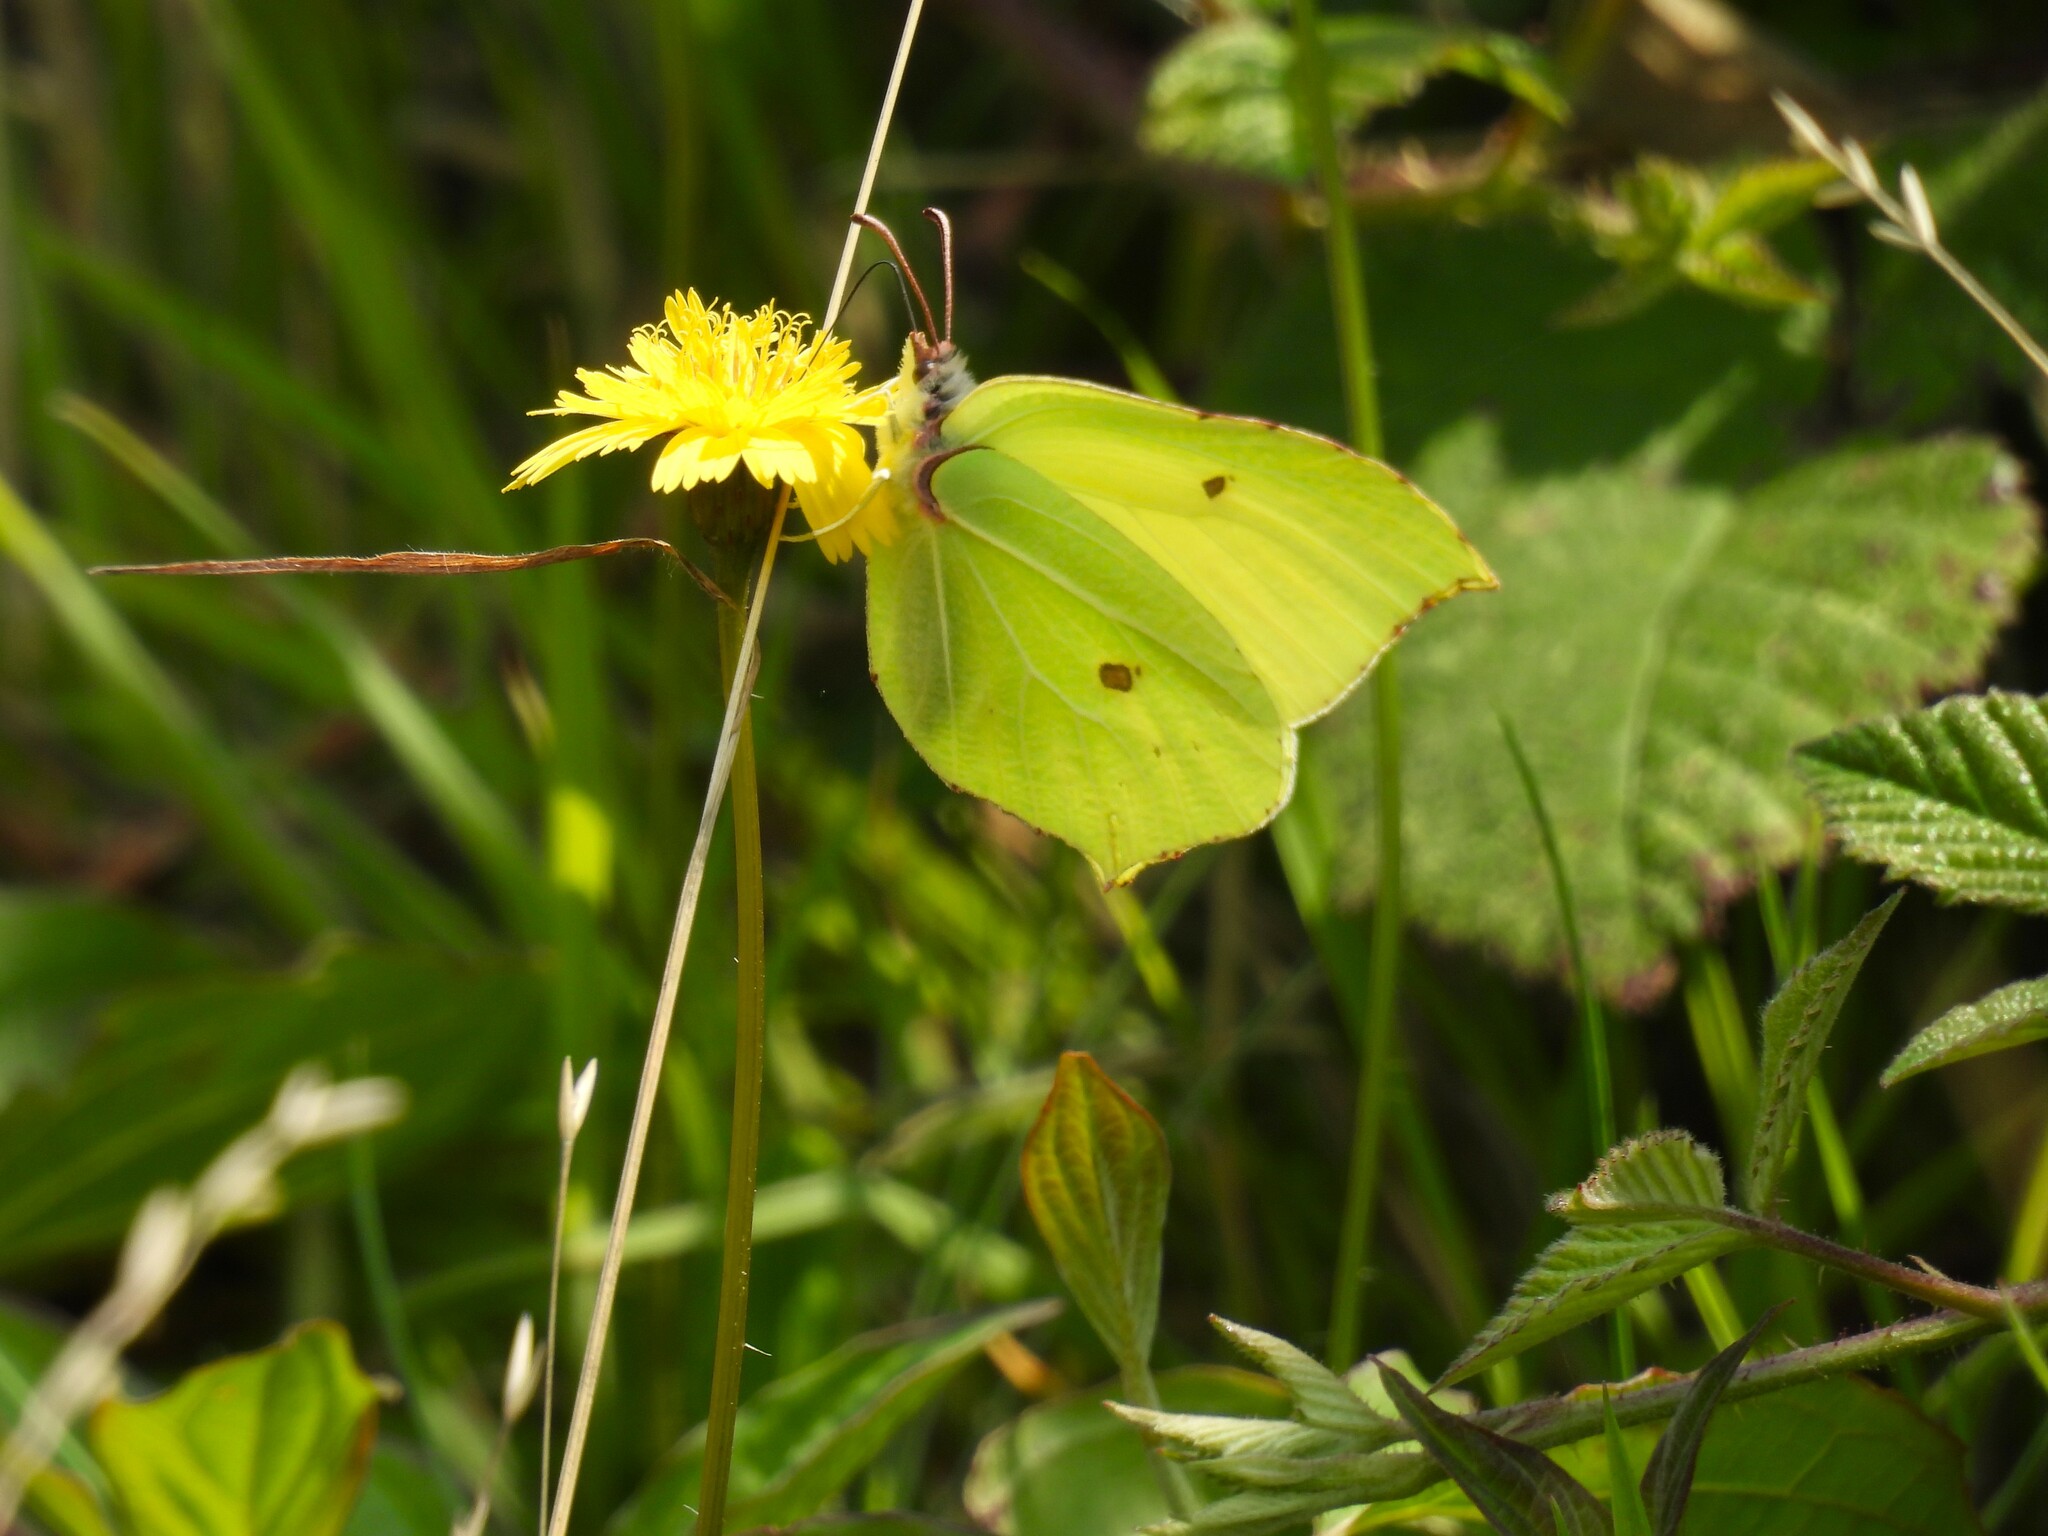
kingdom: Animalia
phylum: Arthropoda
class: Insecta
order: Lepidoptera
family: Pieridae
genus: Gonepteryx
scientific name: Gonepteryx rhamni
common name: Brimstone
